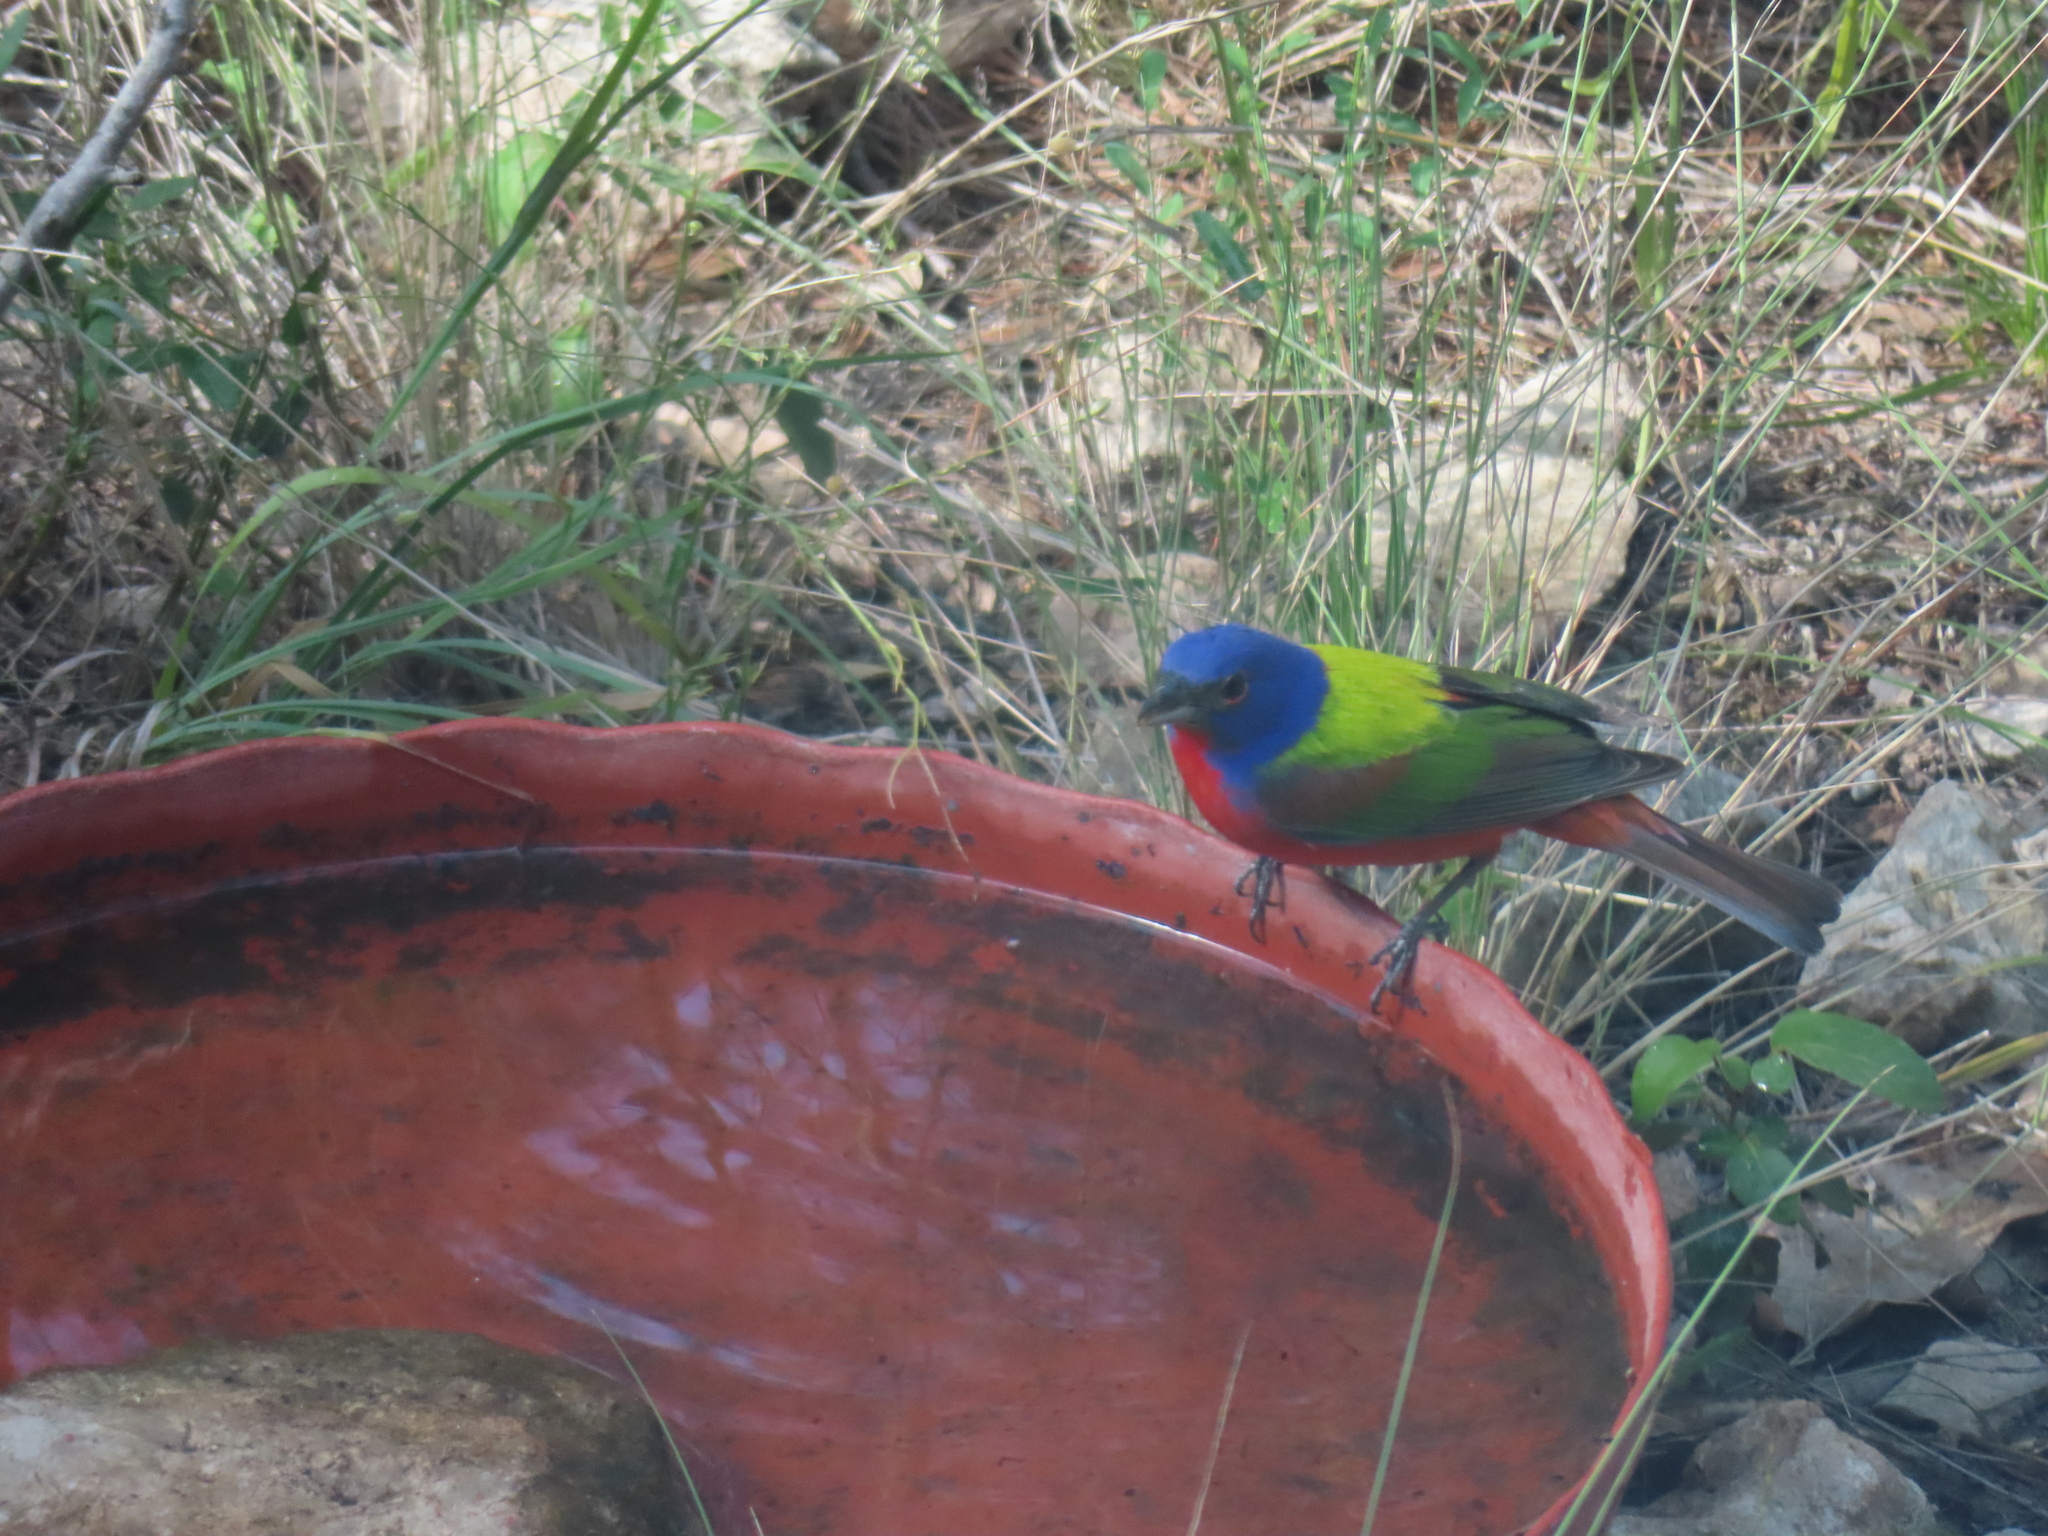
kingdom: Animalia
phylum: Chordata
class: Aves
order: Passeriformes
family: Cardinalidae
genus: Passerina
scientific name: Passerina ciris
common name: Painted bunting
